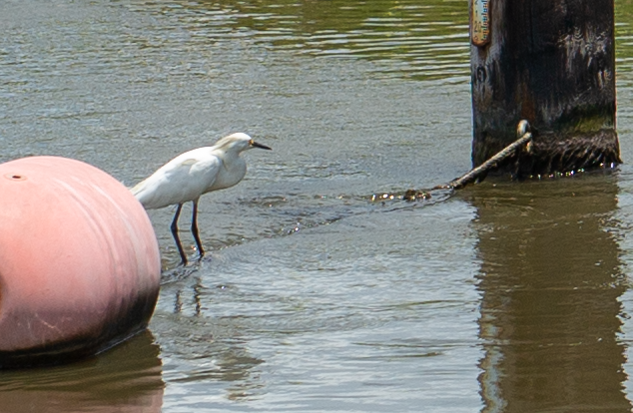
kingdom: Animalia
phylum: Chordata
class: Aves
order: Pelecaniformes
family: Ardeidae
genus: Egretta
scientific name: Egretta thula
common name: Snowy egret
